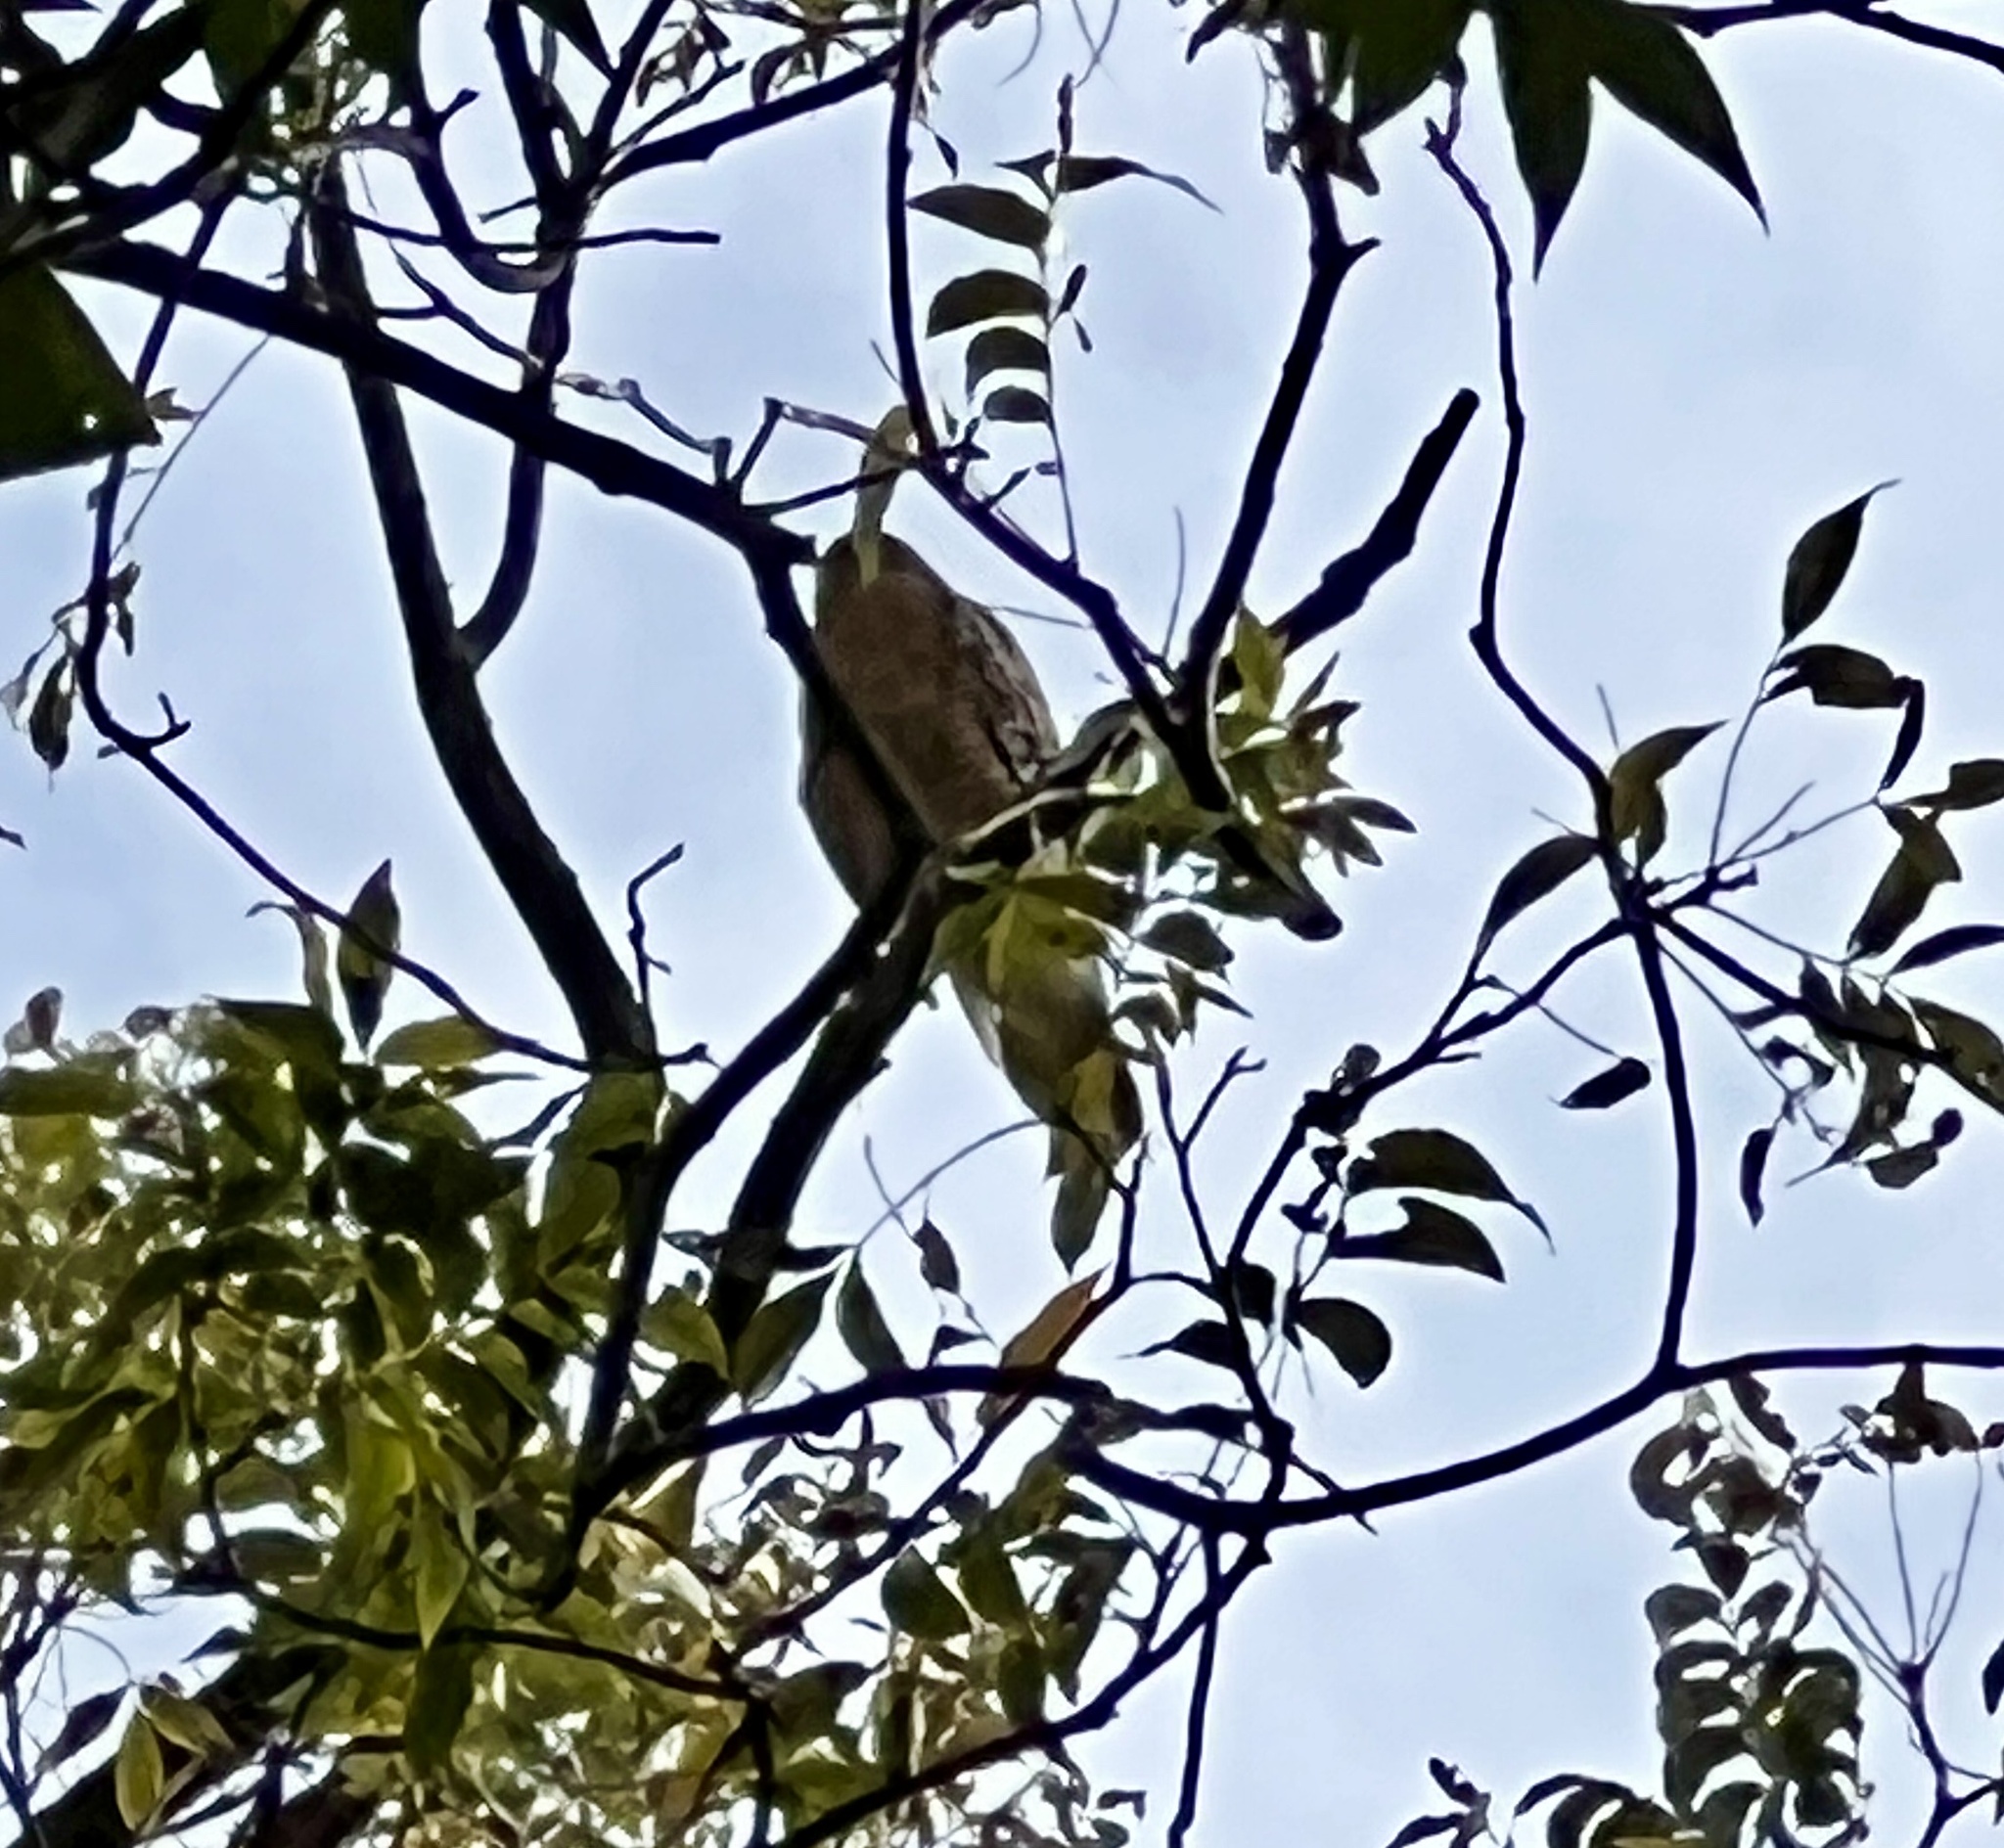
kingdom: Animalia
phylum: Chordata
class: Aves
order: Accipitriformes
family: Accipitridae
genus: Buteo
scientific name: Buteo lineatus
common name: Red-shouldered hawk
